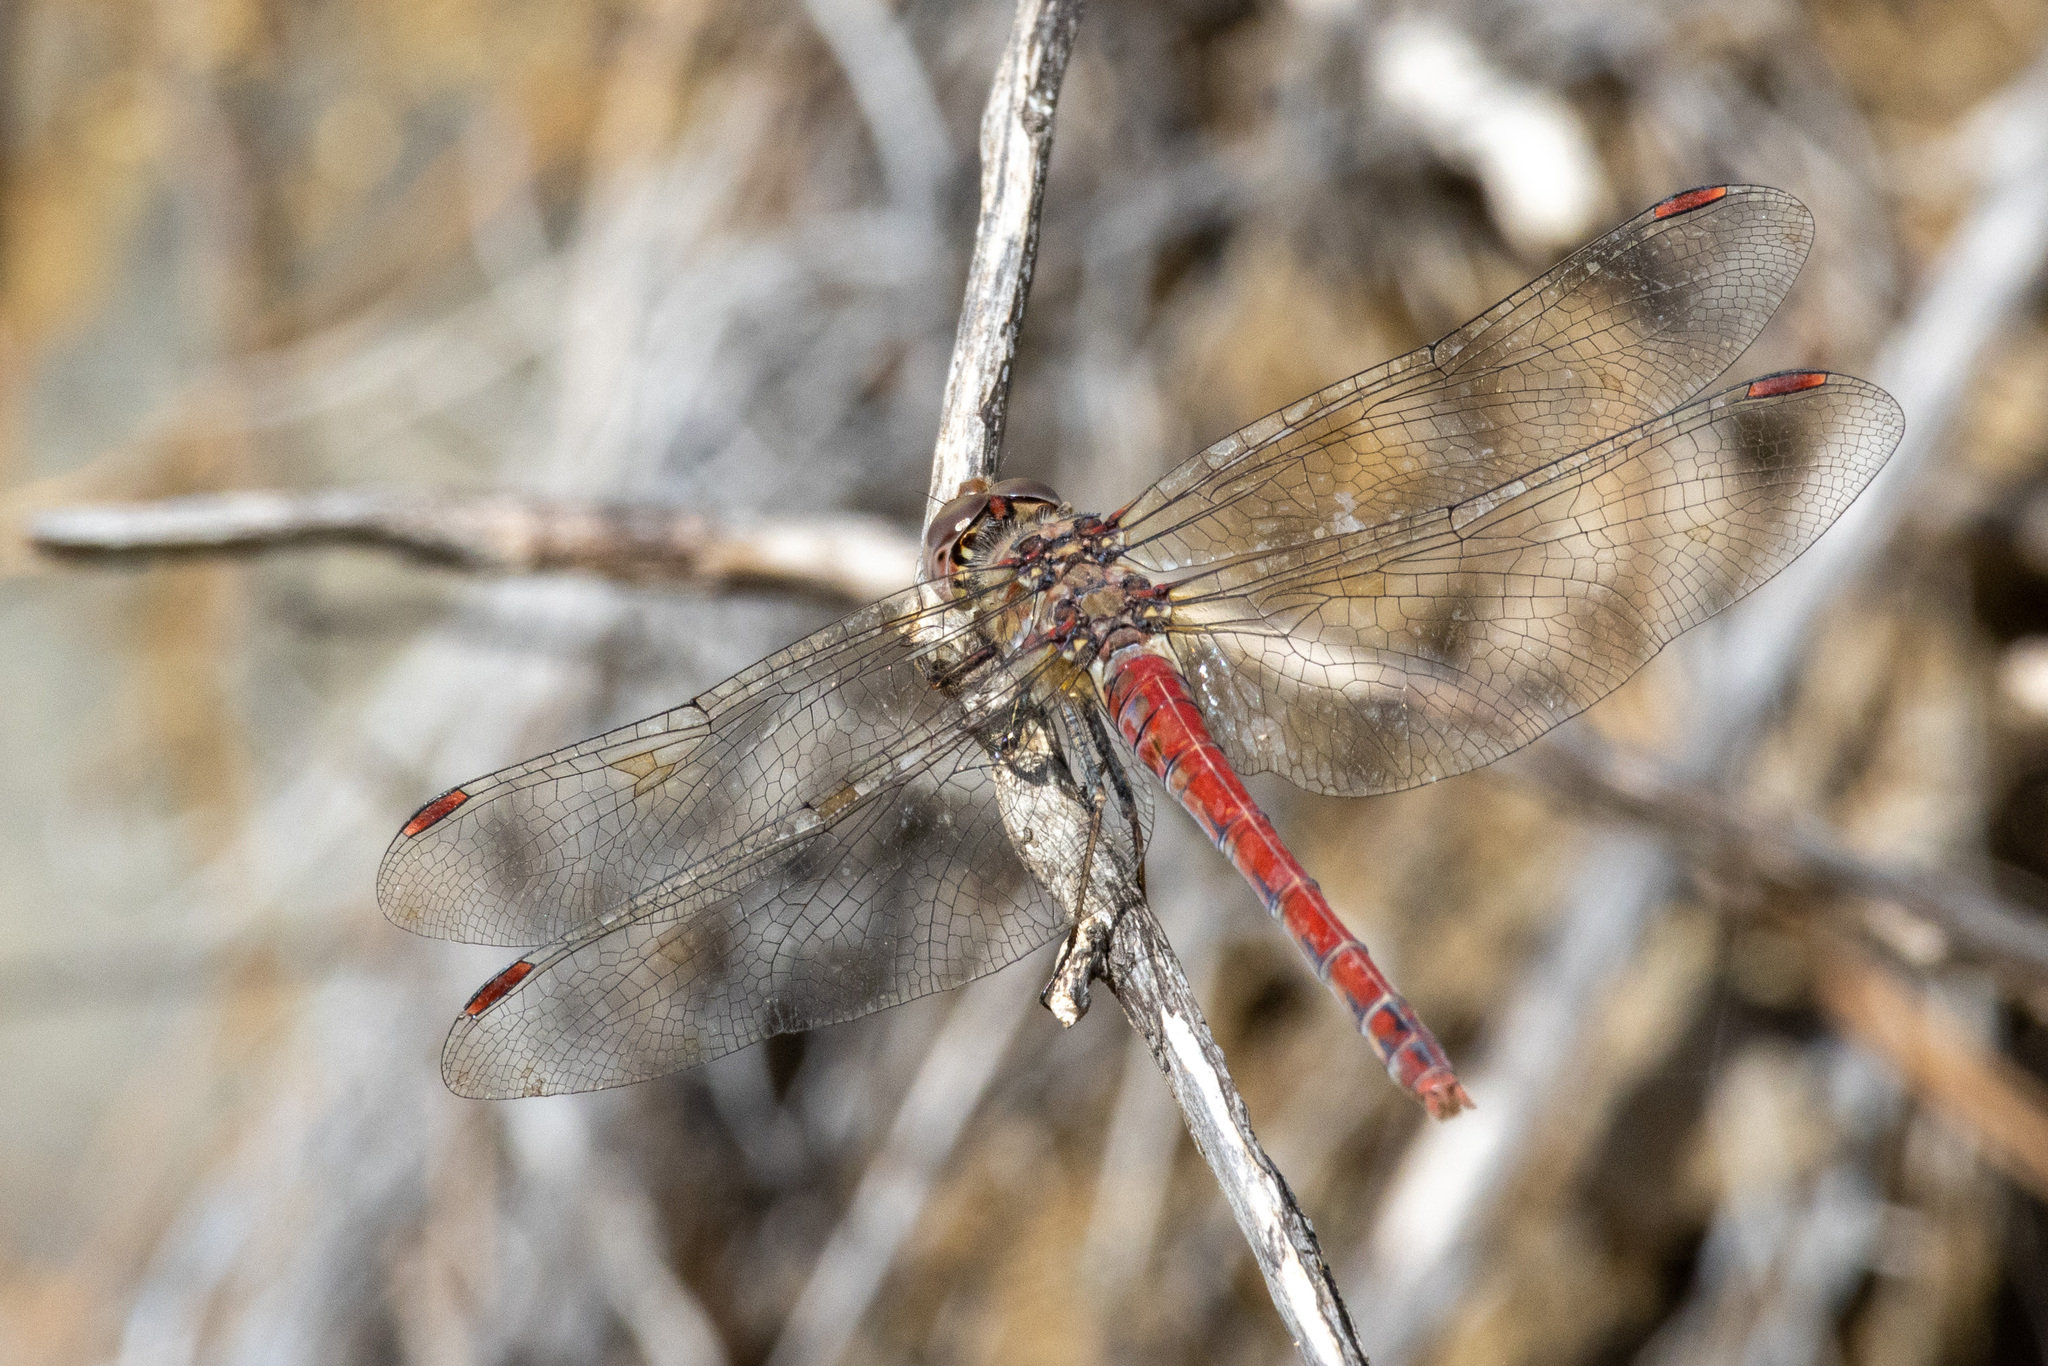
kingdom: Animalia
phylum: Arthropoda
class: Insecta
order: Odonata
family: Libellulidae
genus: Sympetrum
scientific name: Sympetrum nigrifemur
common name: Island darter
